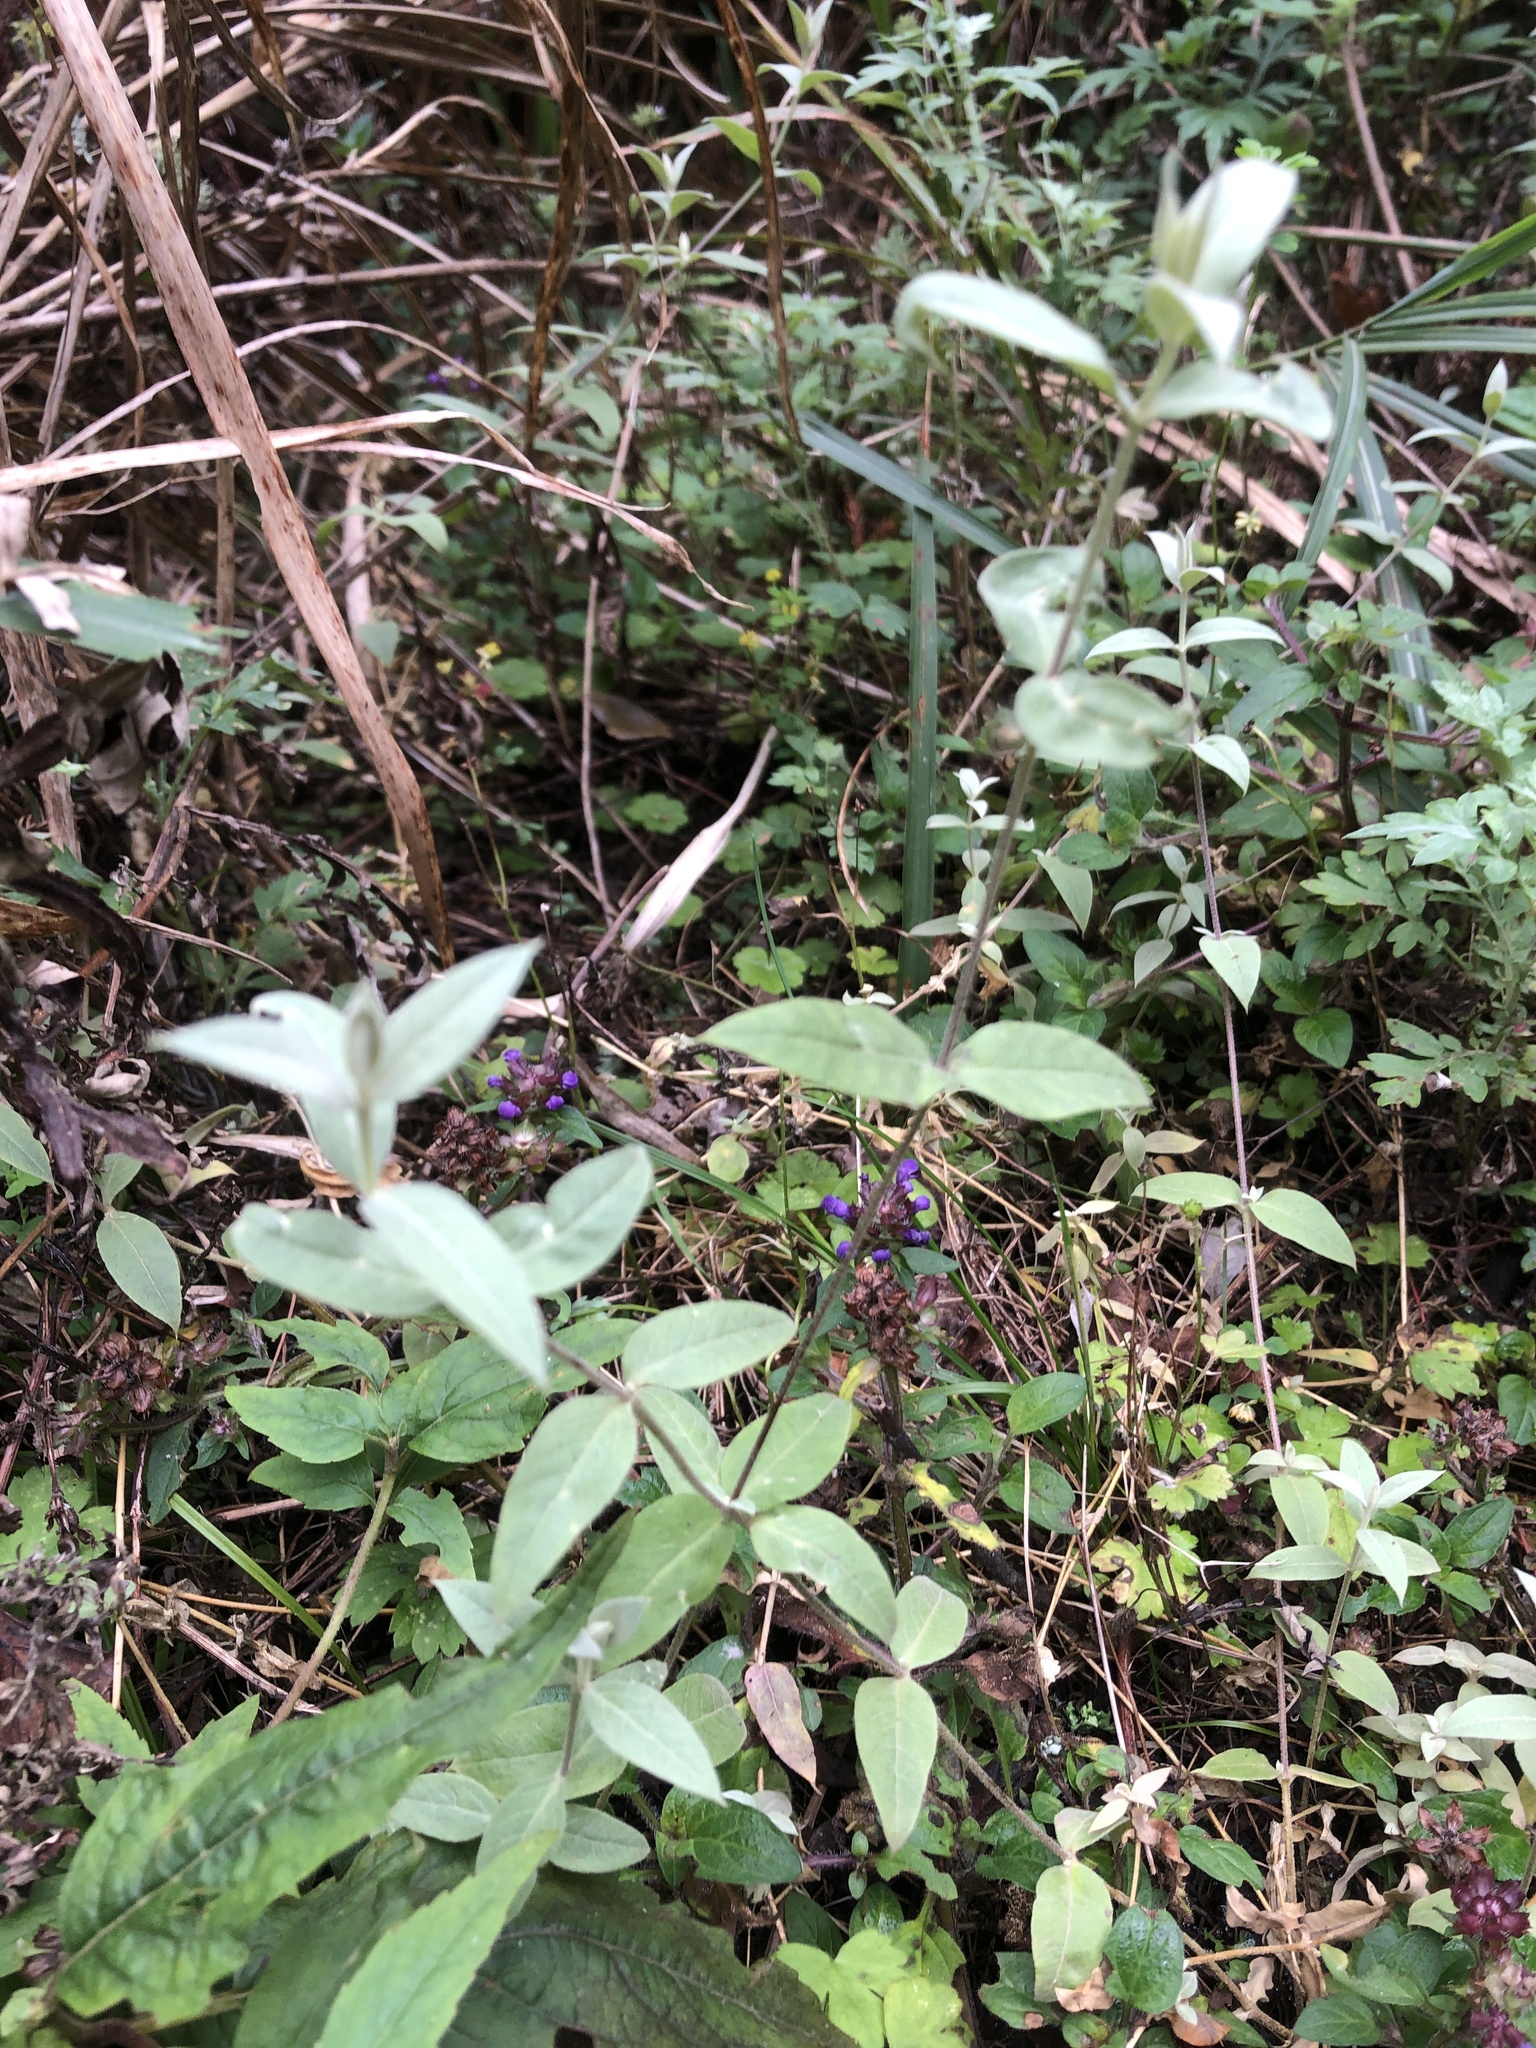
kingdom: Plantae
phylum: Tracheophyta
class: Magnoliopsida
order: Caryophyllales
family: Caryophyllaceae
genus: Stellaria
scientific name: Stellaria vestita
